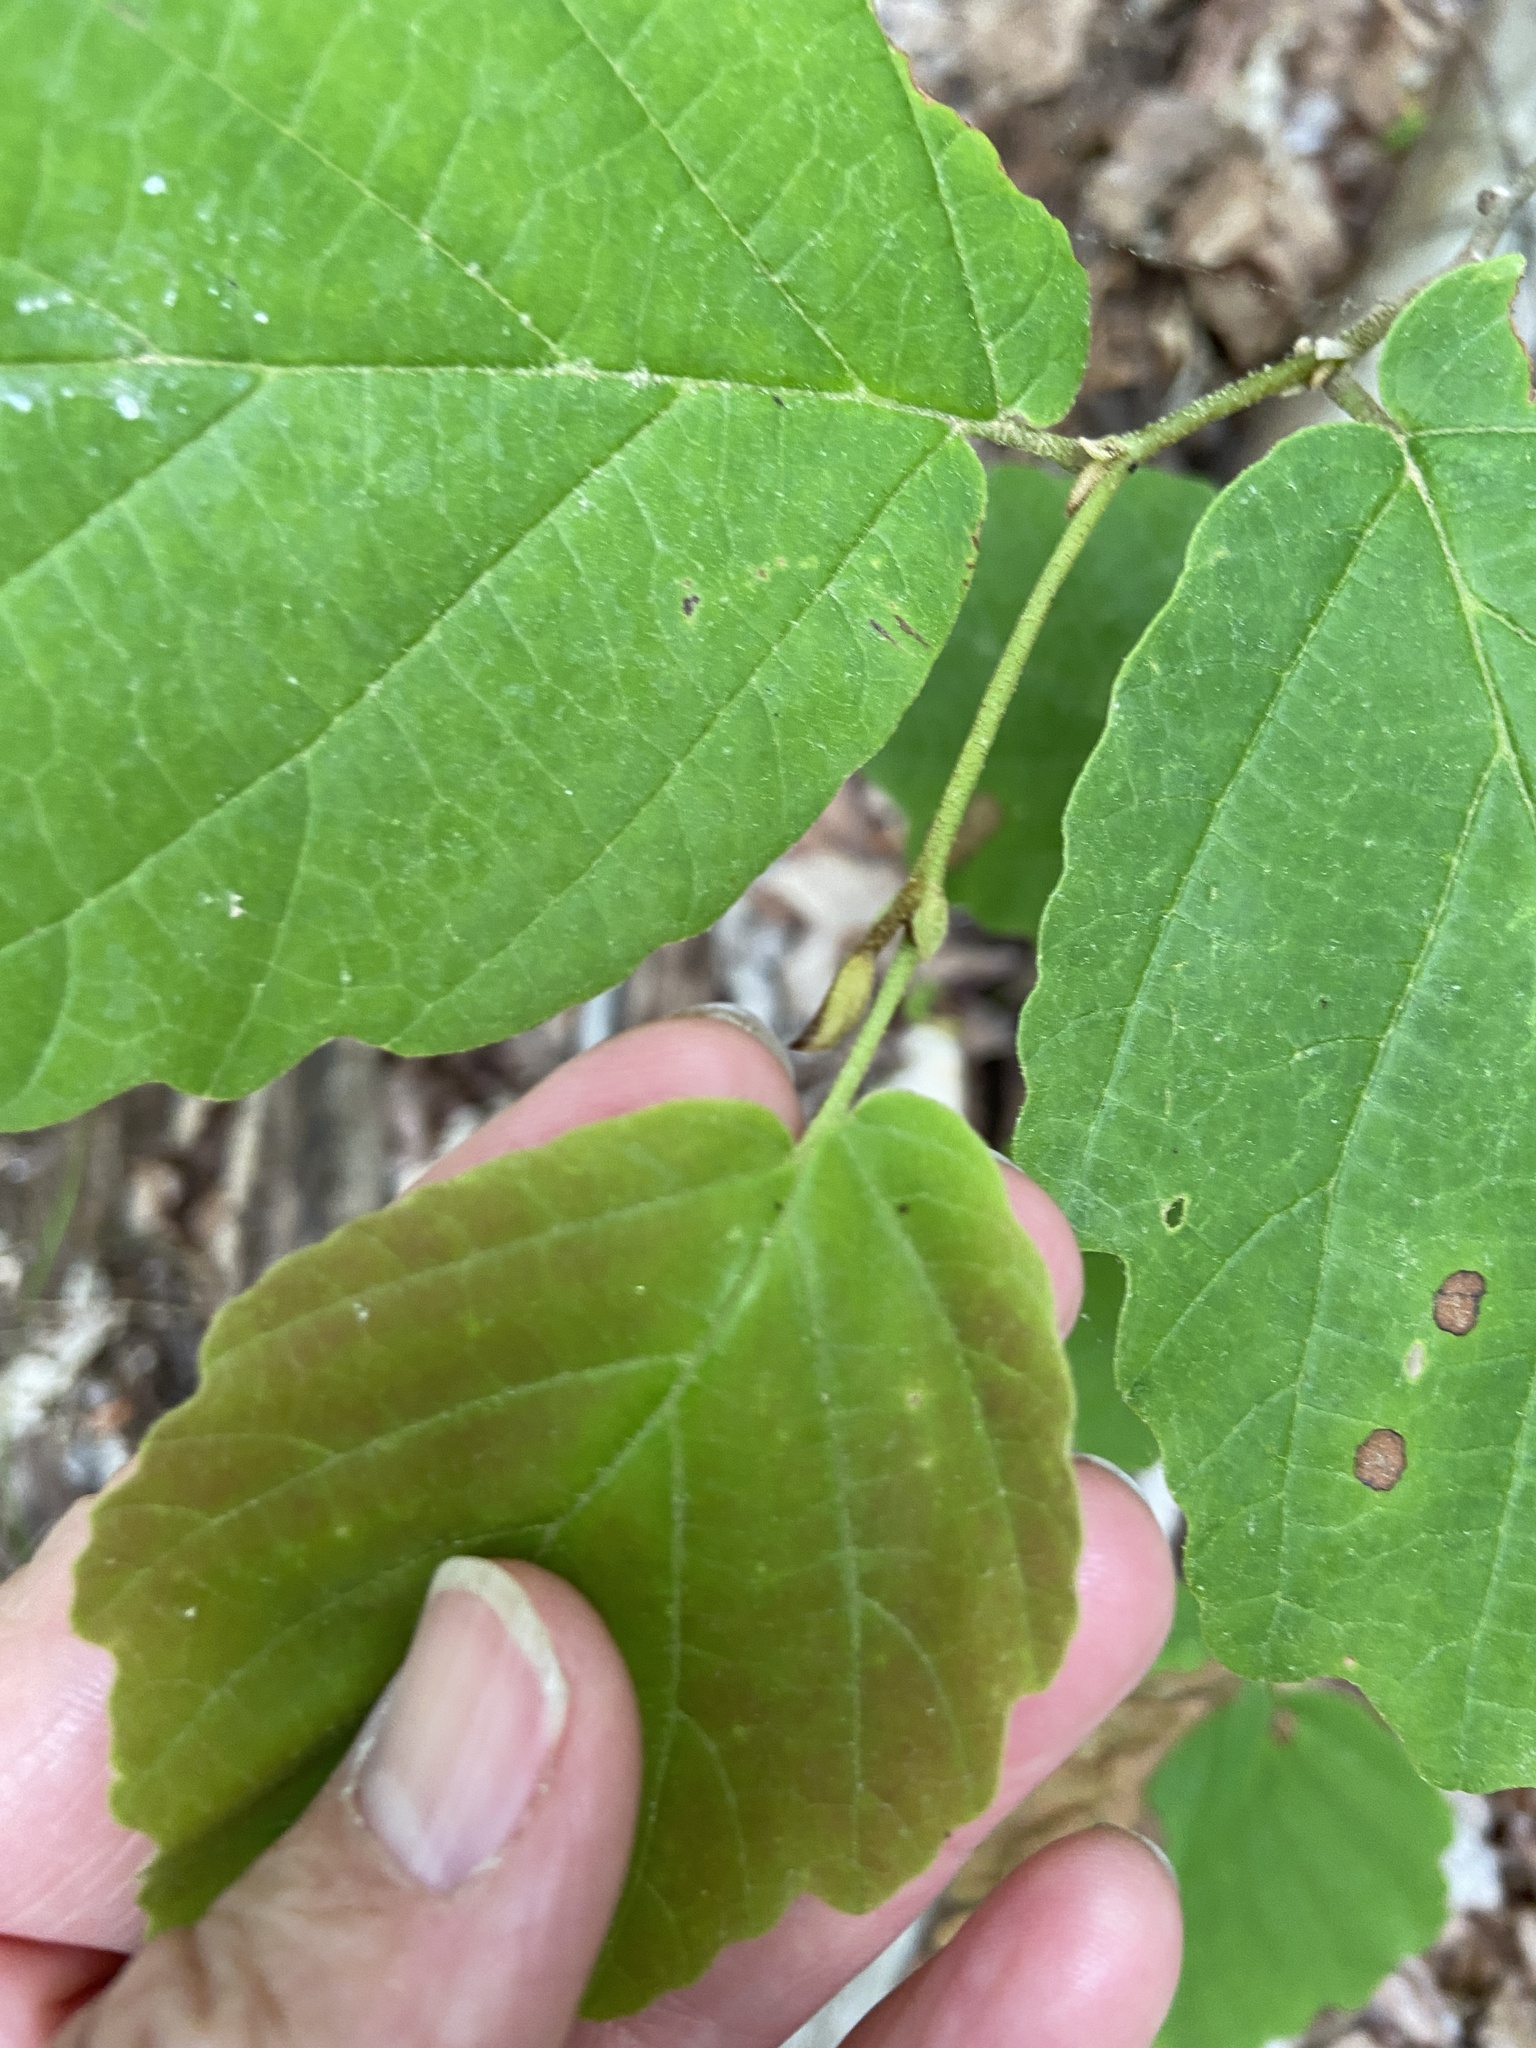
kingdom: Plantae
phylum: Tracheophyta
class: Magnoliopsida
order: Saxifragales
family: Hamamelidaceae
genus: Hamamelis
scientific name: Hamamelis virginiana
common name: Witch-hazel
